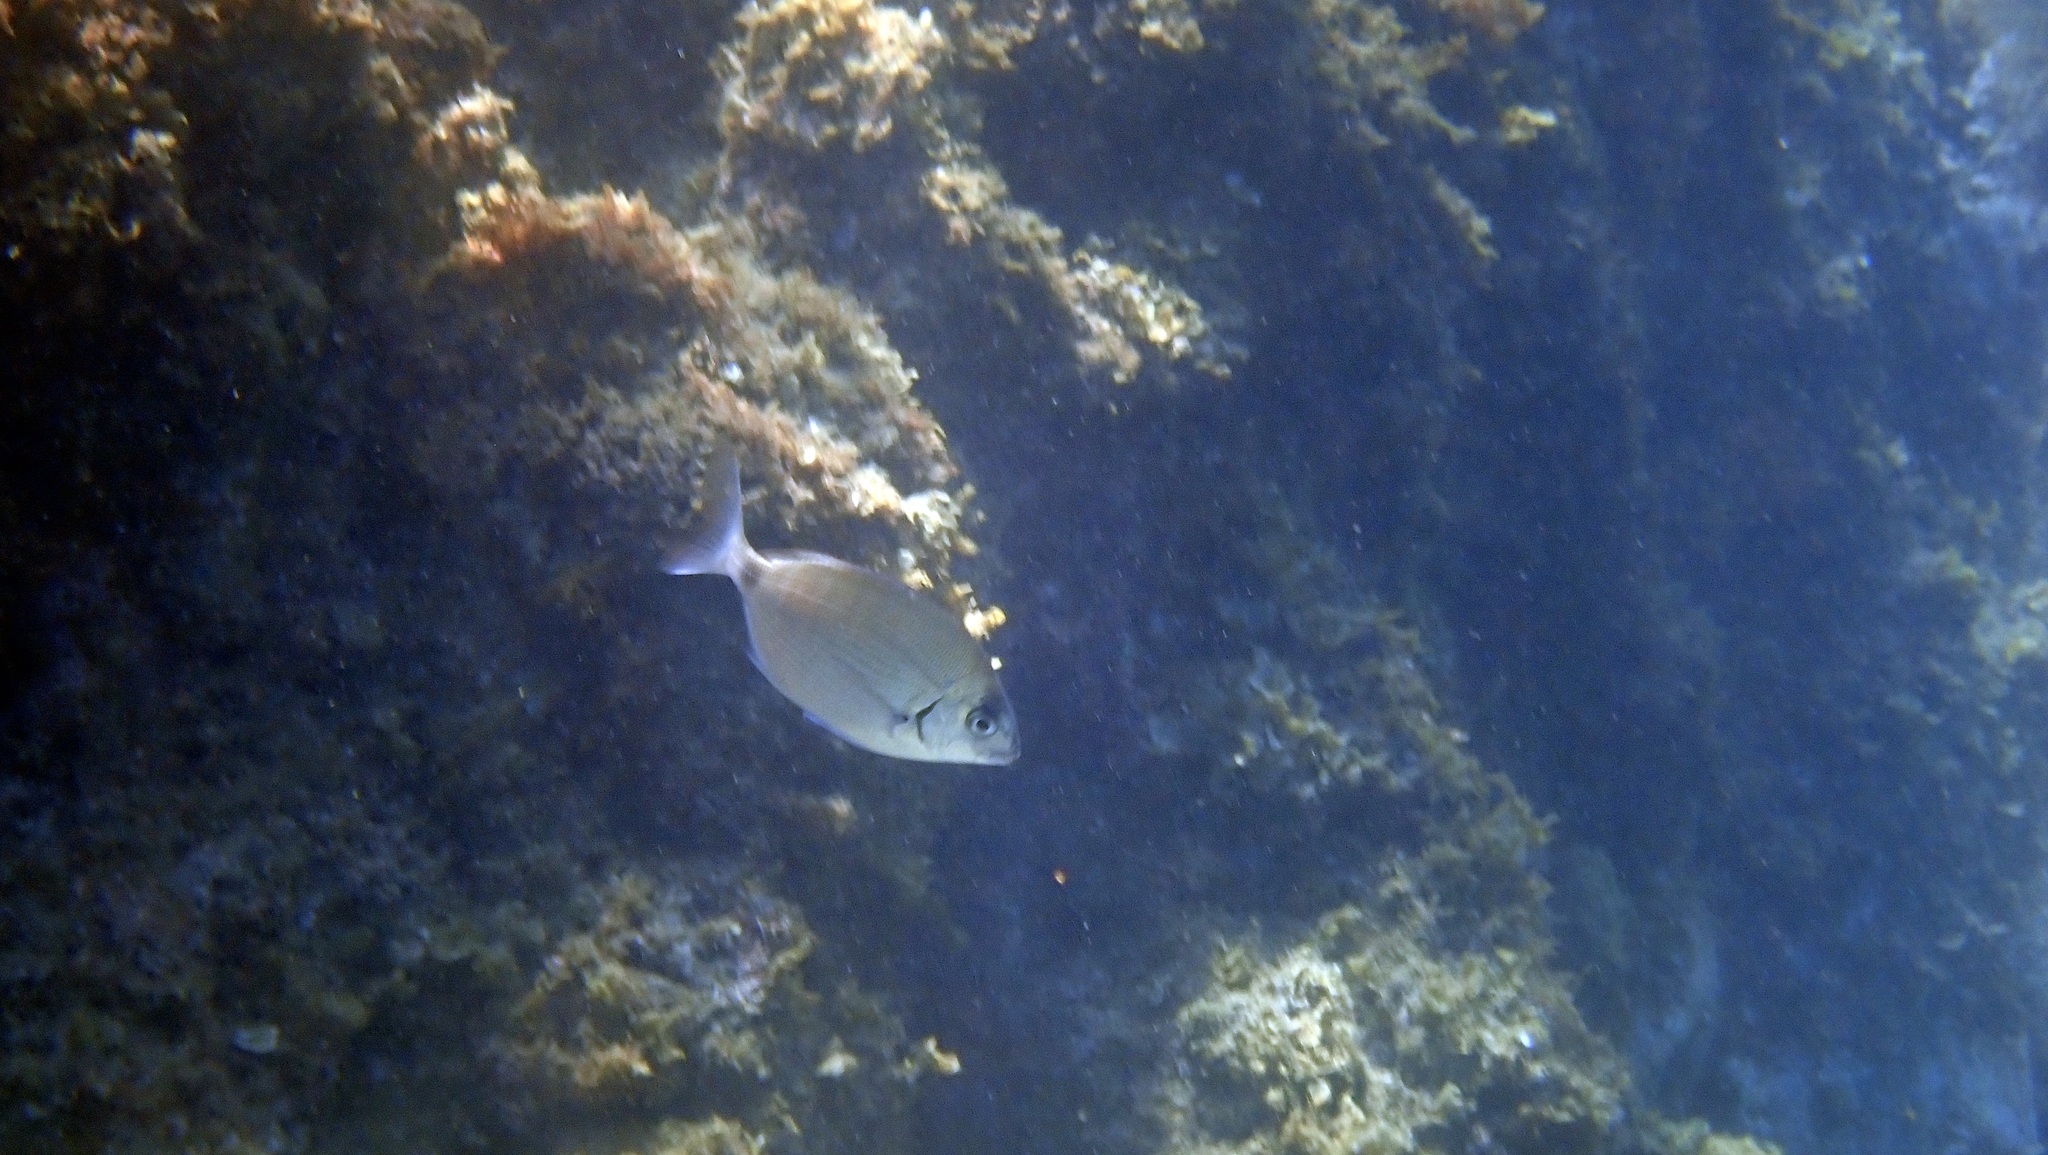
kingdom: Animalia
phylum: Chordata
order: Perciformes
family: Sparidae
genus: Diplodus
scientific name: Diplodus sargus
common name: White seabream
